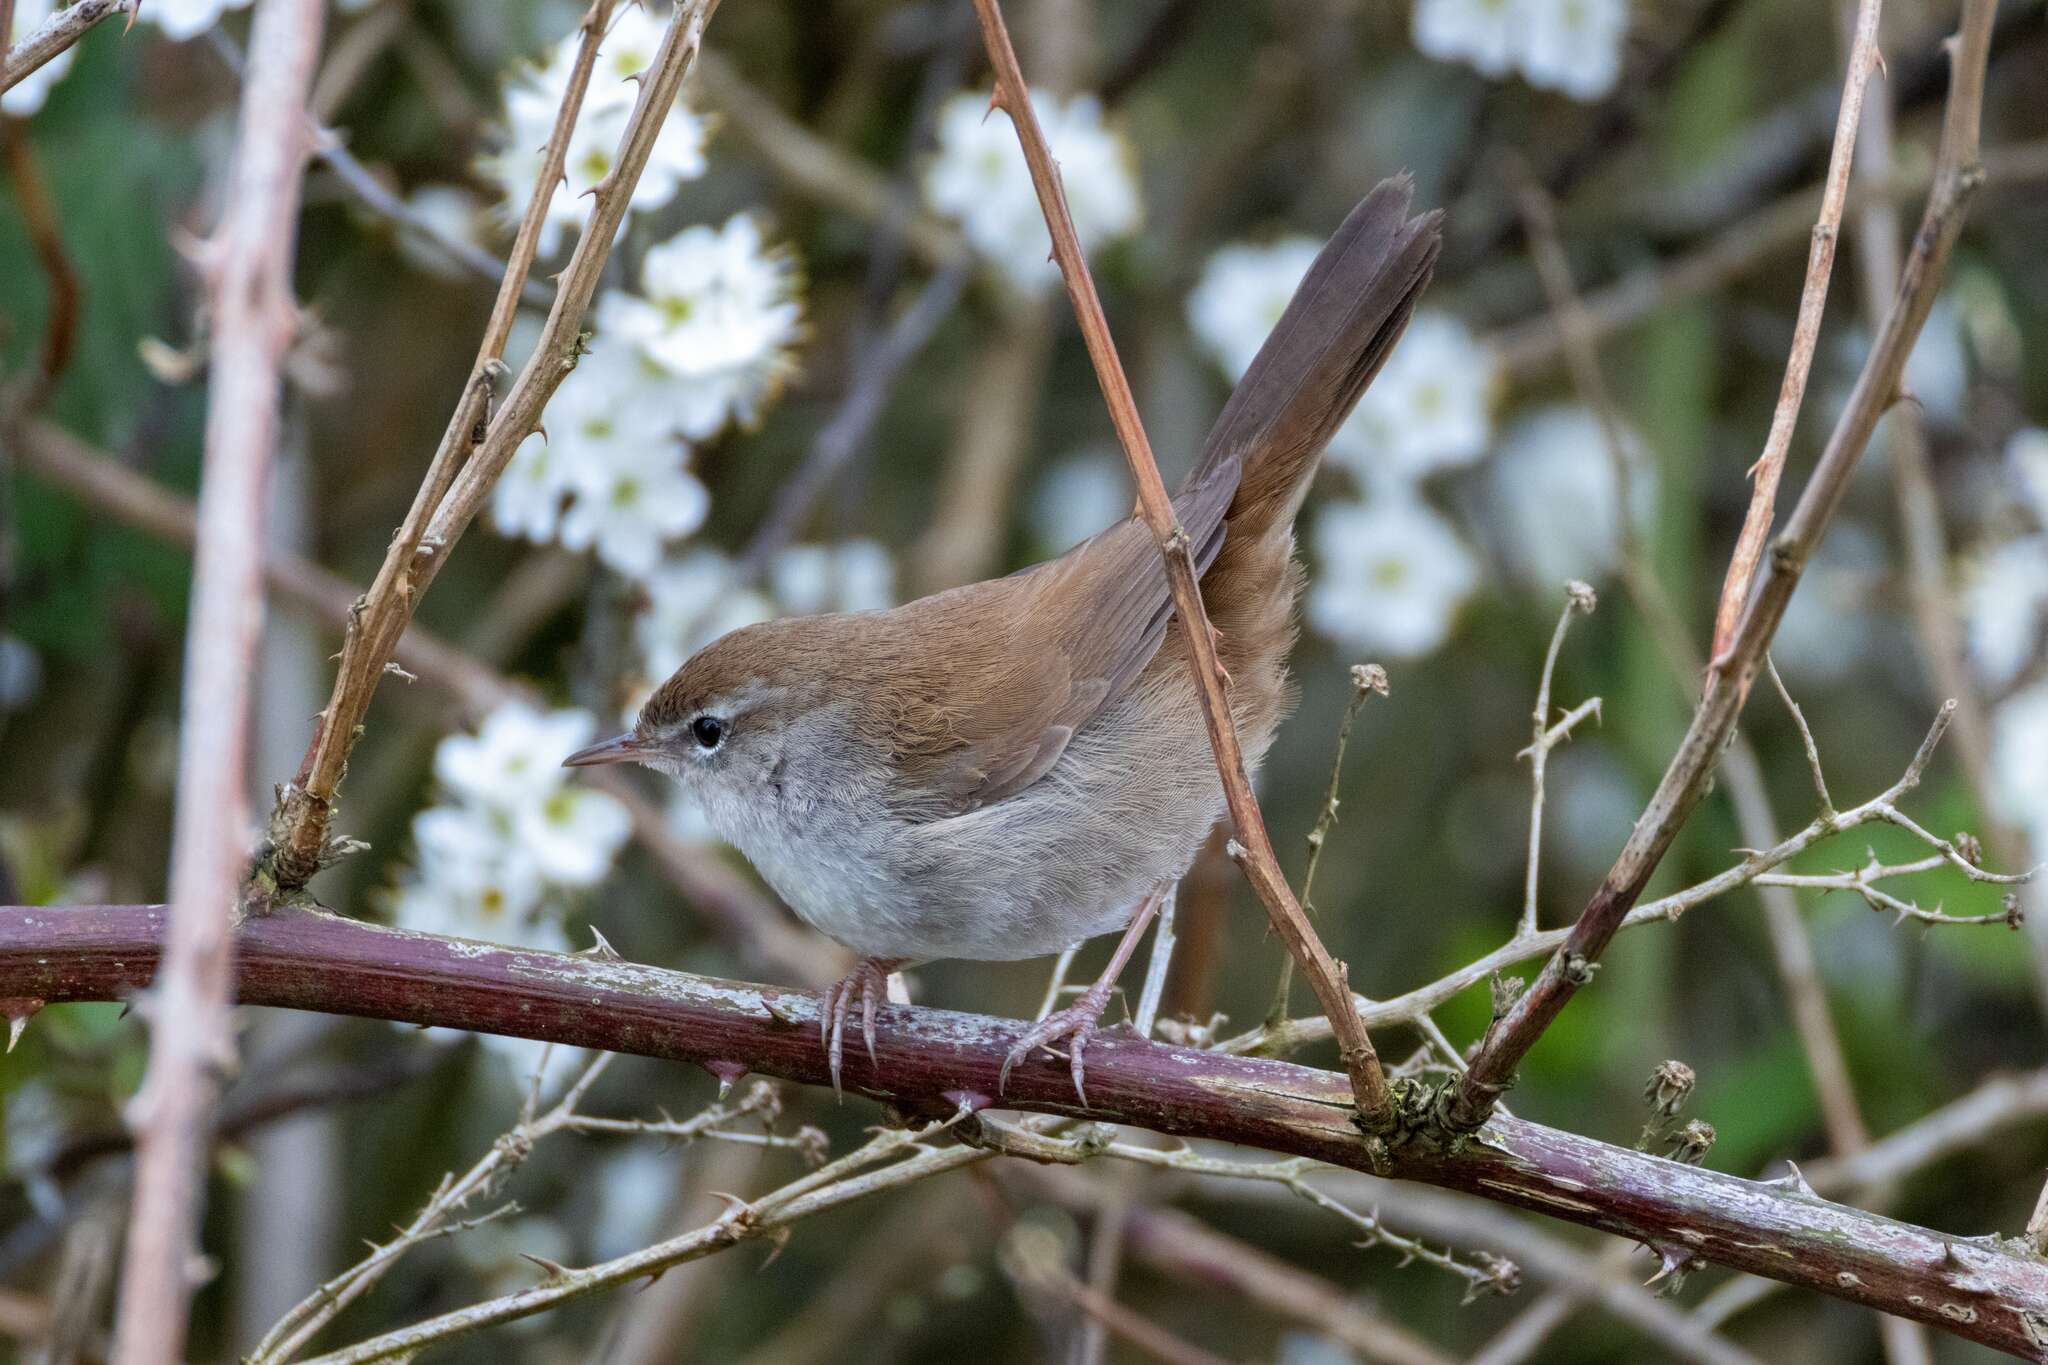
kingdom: Animalia
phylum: Chordata
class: Aves
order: Passeriformes
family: Cettiidae
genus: Cettia
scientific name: Cettia cetti
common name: Cetti's warbler
